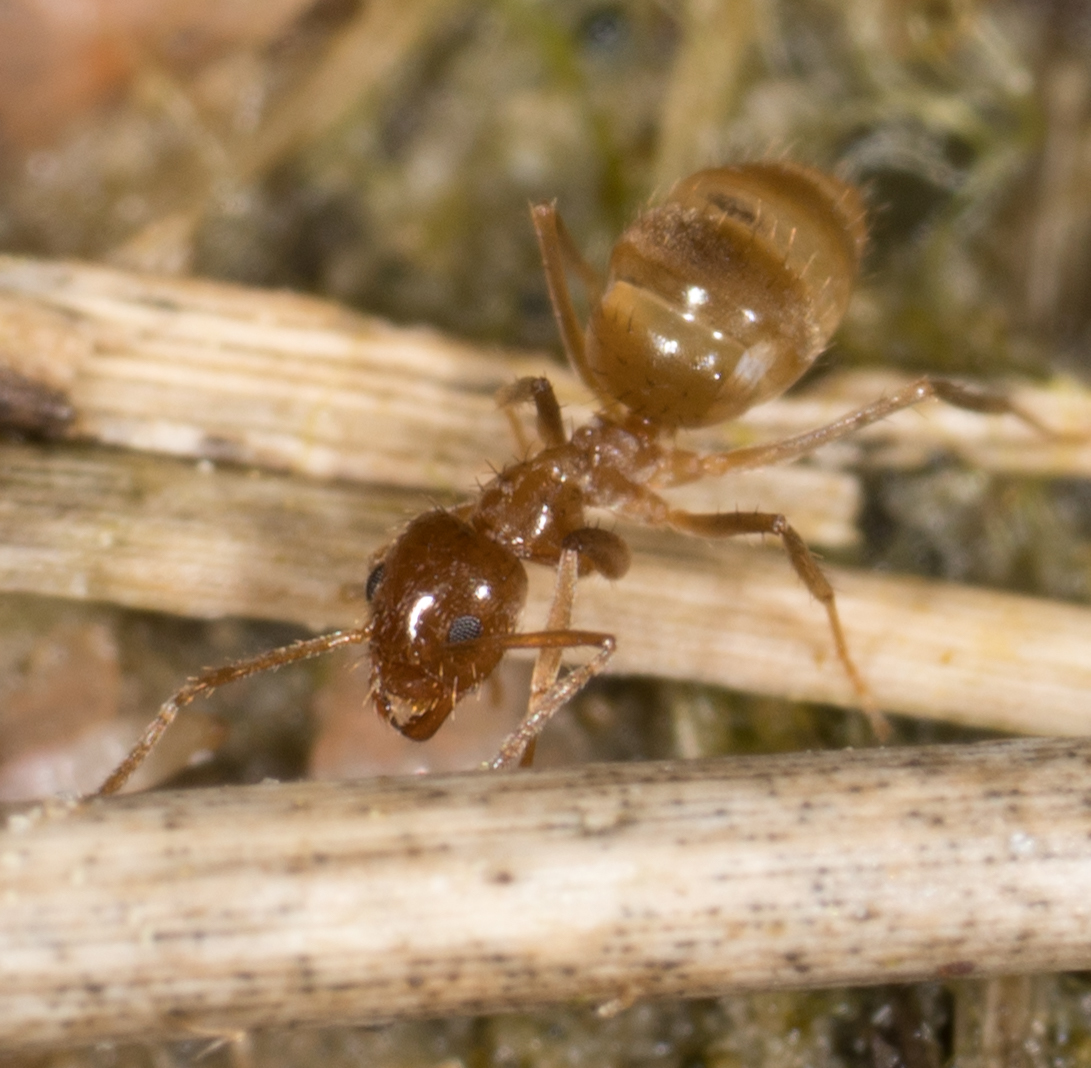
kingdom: Animalia
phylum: Arthropoda
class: Insecta
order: Hymenoptera
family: Formicidae
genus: Paratrechina
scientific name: Paratrechina fulva
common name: Tawny crazy ant
